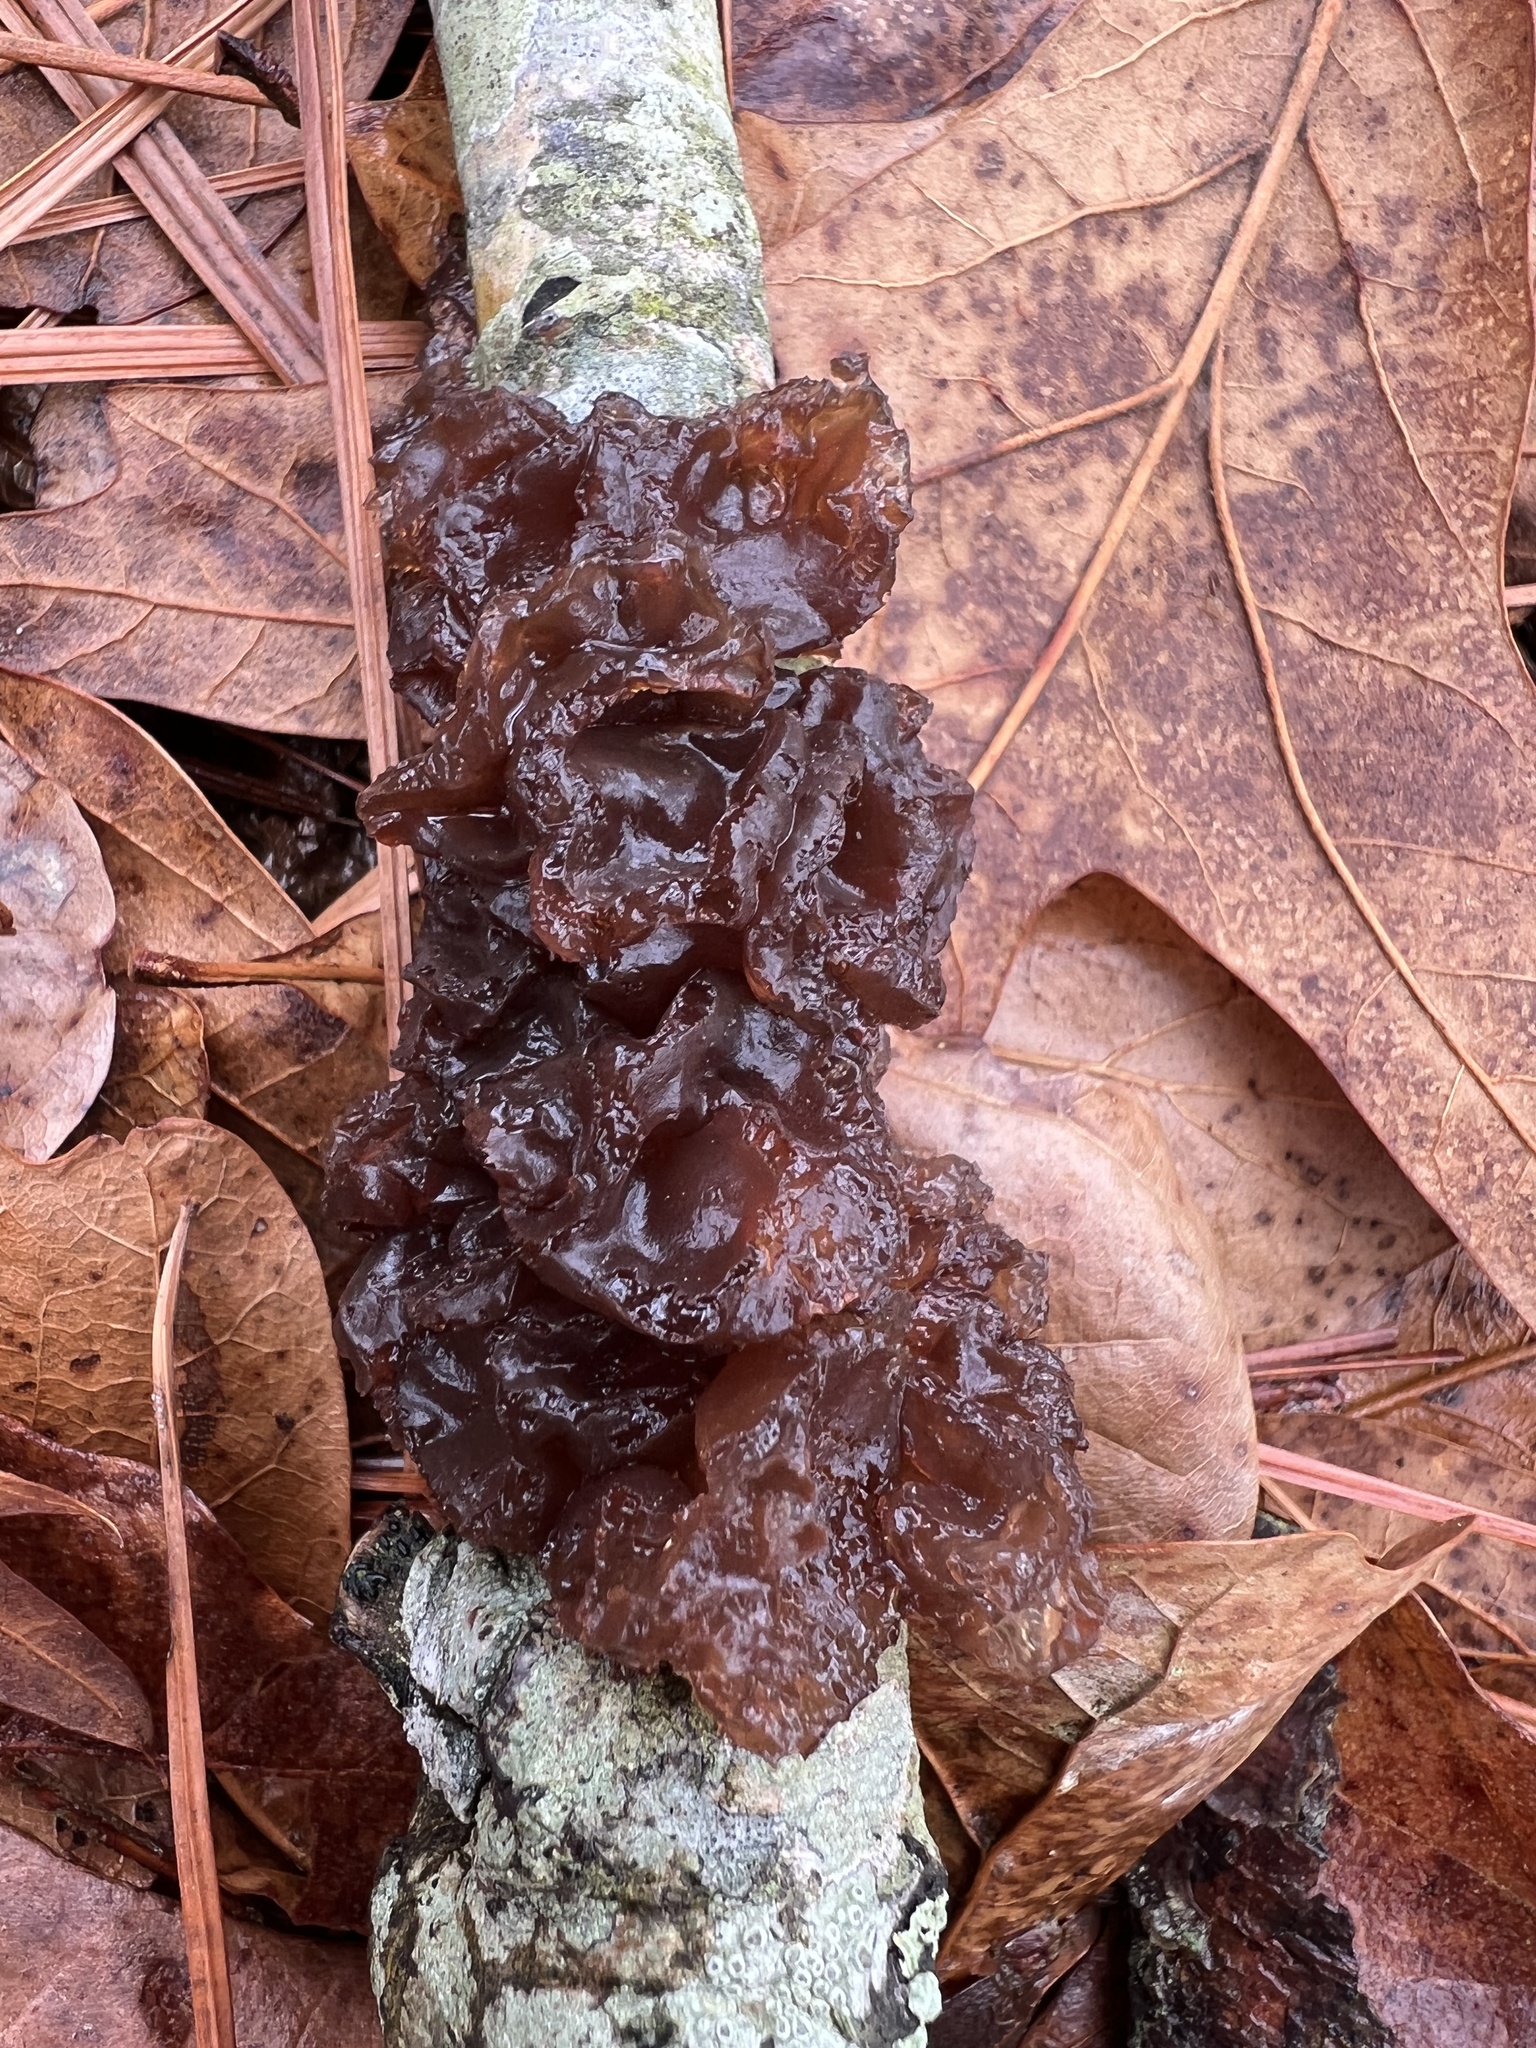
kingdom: Fungi
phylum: Basidiomycota
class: Agaricomycetes
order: Auriculariales
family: Auriculariaceae
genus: Exidia
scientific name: Exidia
